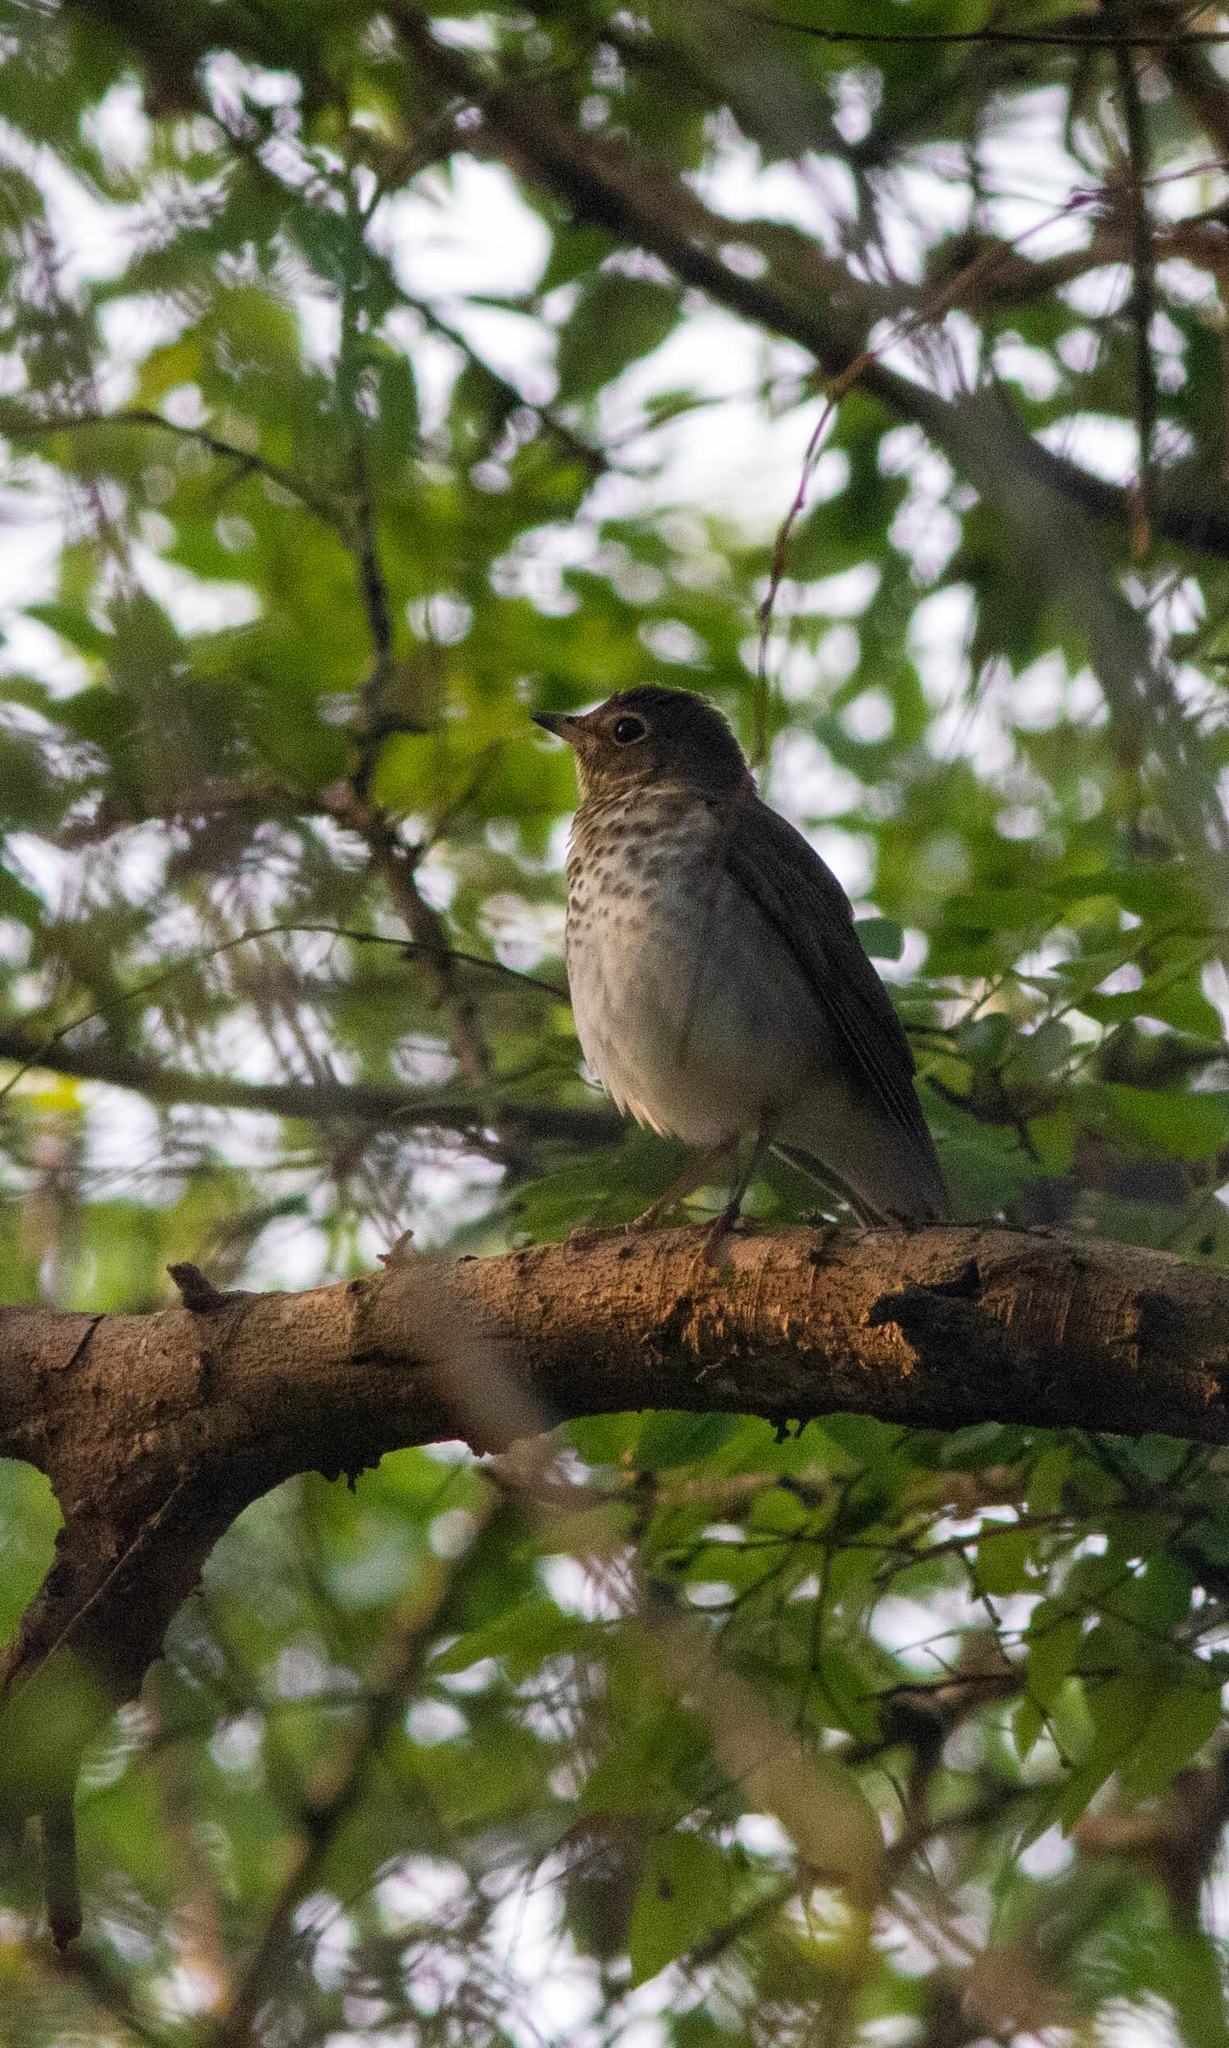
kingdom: Animalia
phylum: Chordata
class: Aves
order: Passeriformes
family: Turdidae
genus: Catharus
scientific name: Catharus ustulatus
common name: Swainson's thrush
